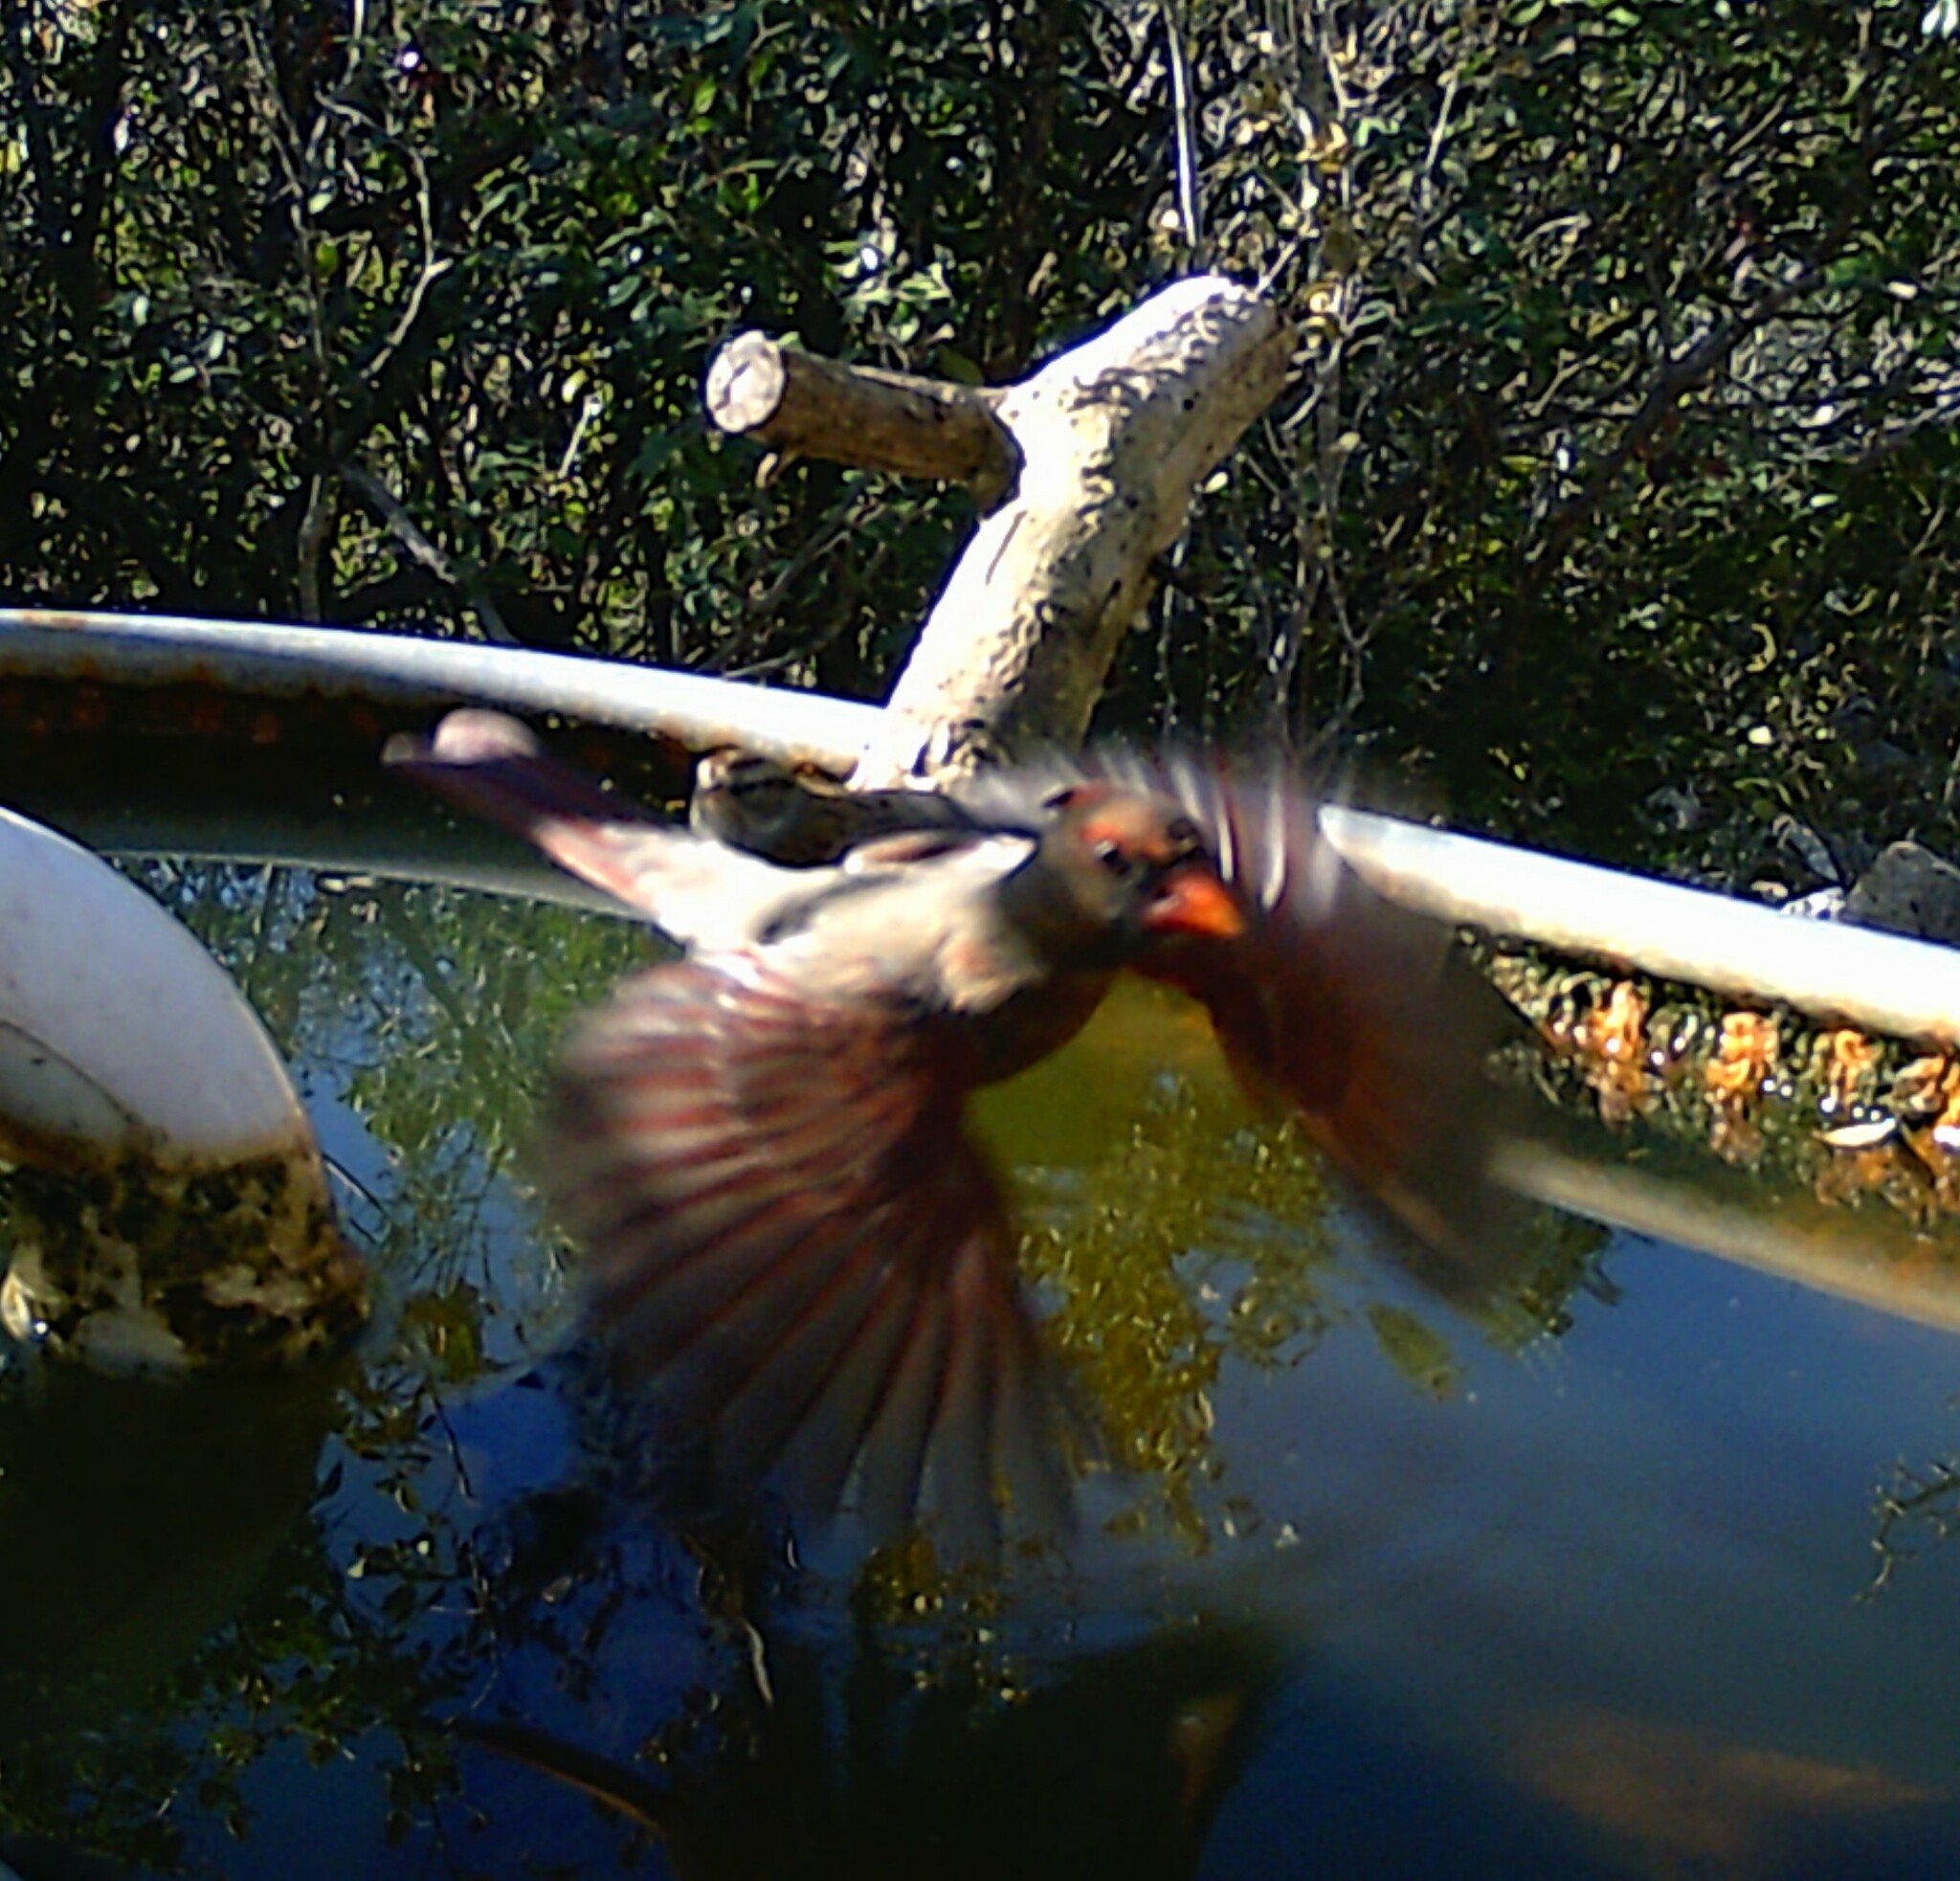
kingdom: Animalia
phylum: Chordata
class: Aves
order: Passeriformes
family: Cardinalidae
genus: Cardinalis
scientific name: Cardinalis cardinalis
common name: Northern cardinal
